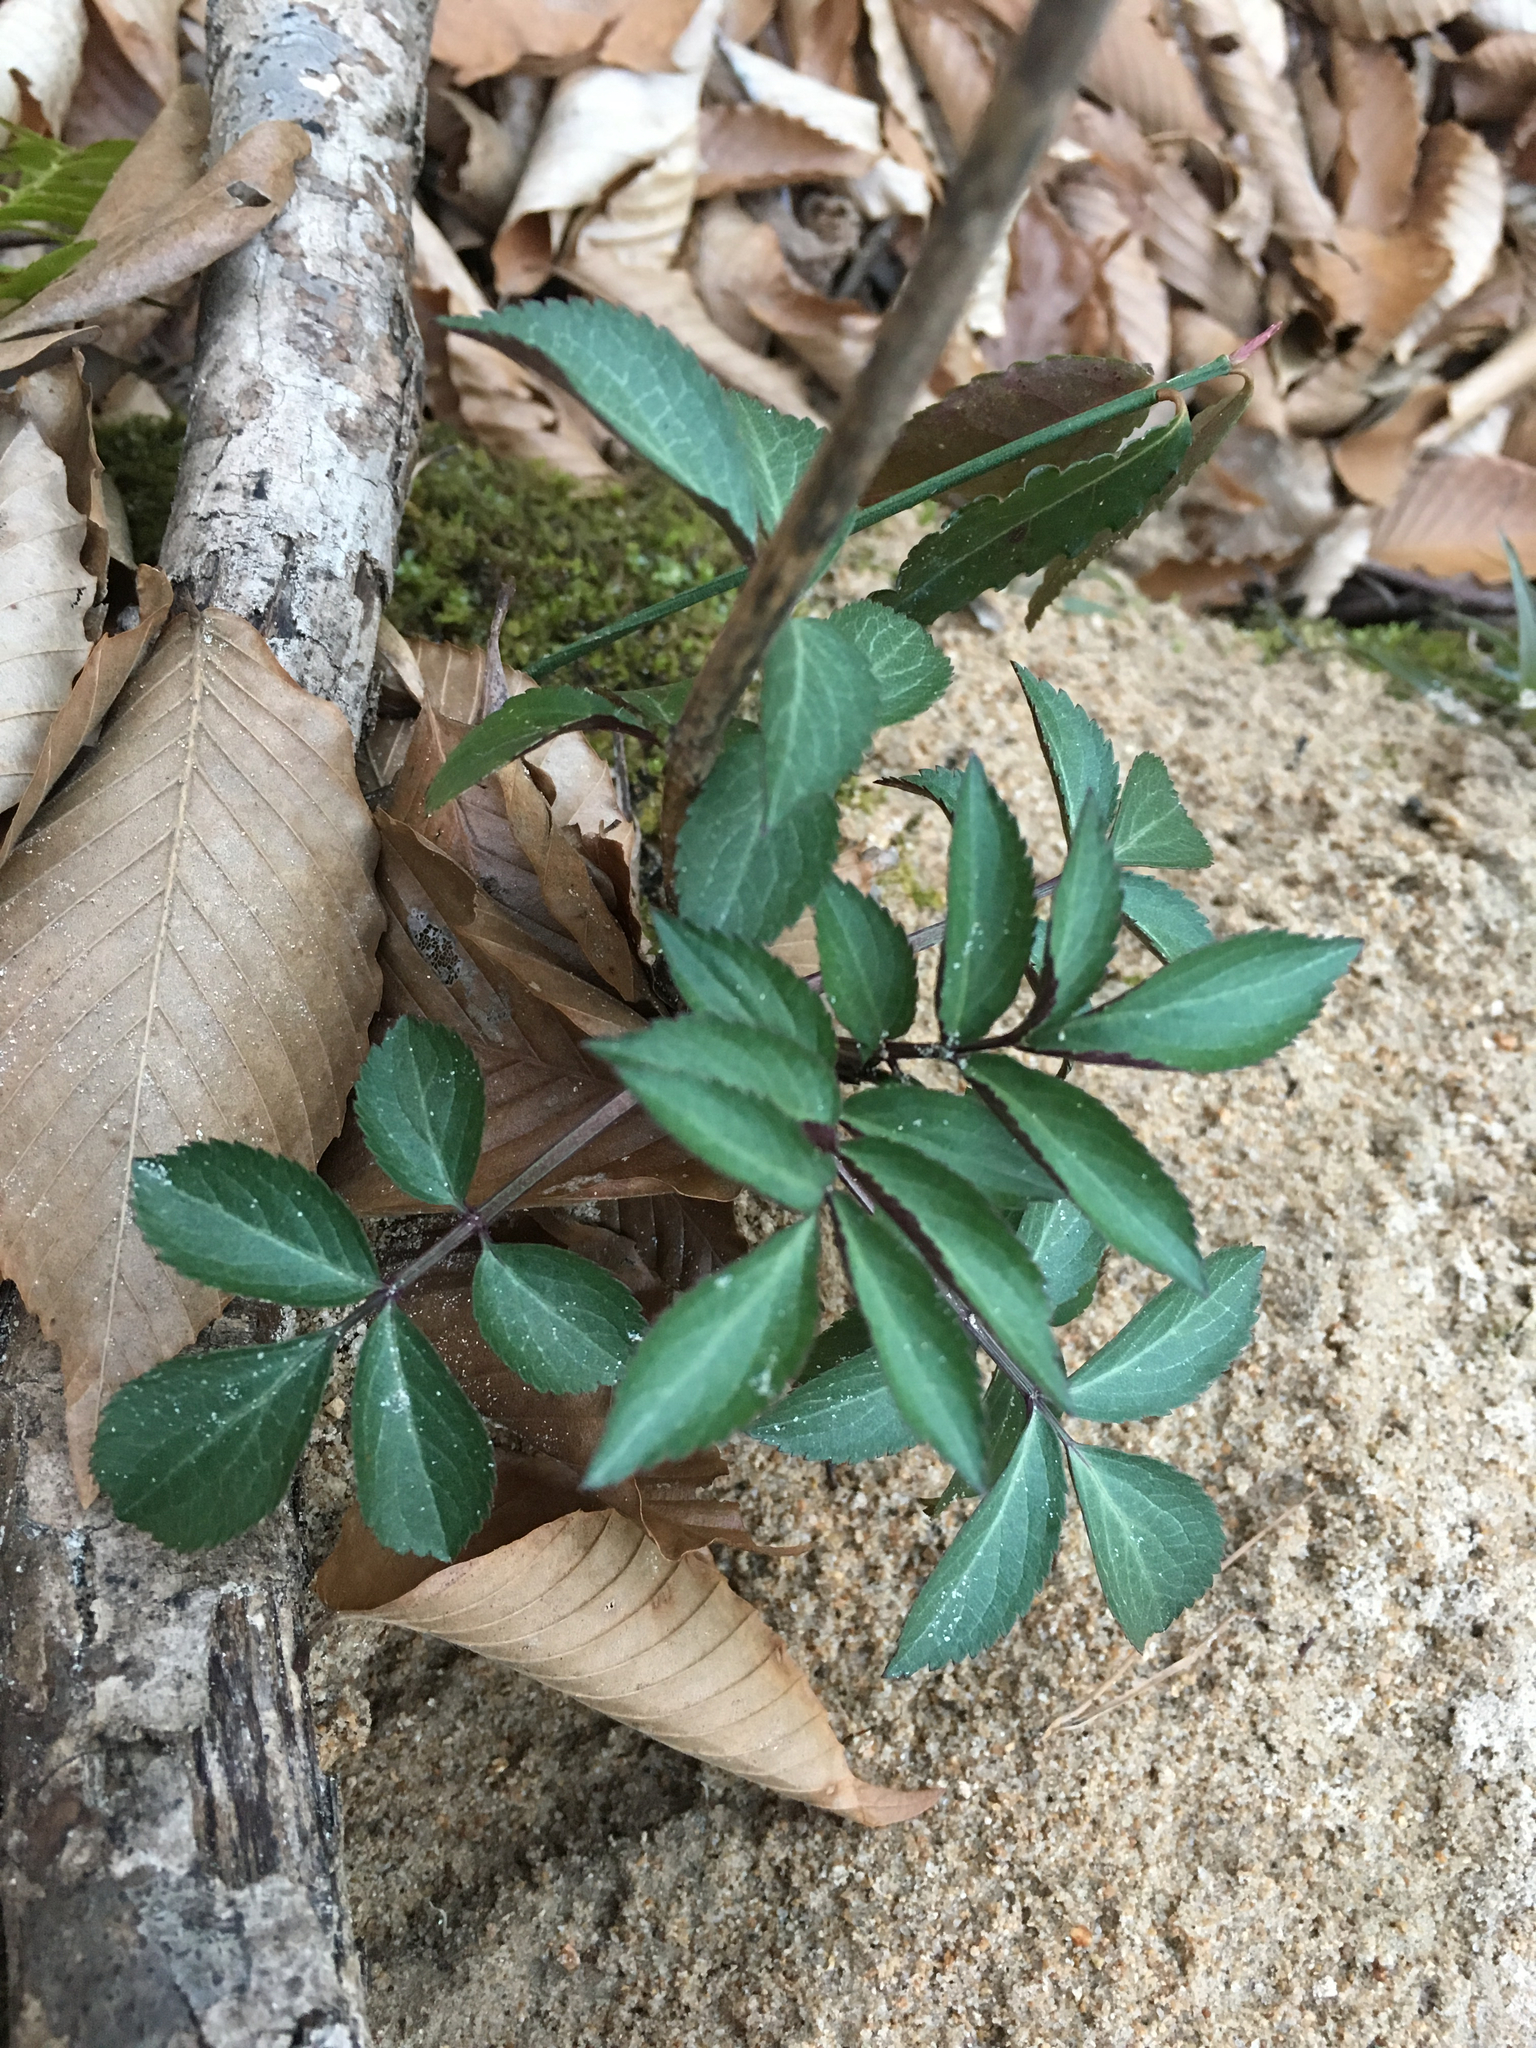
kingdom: Plantae
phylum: Tracheophyta
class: Magnoliopsida
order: Dipsacales
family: Viburnaceae
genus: Sambucus
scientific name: Sambucus canadensis
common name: American elder
